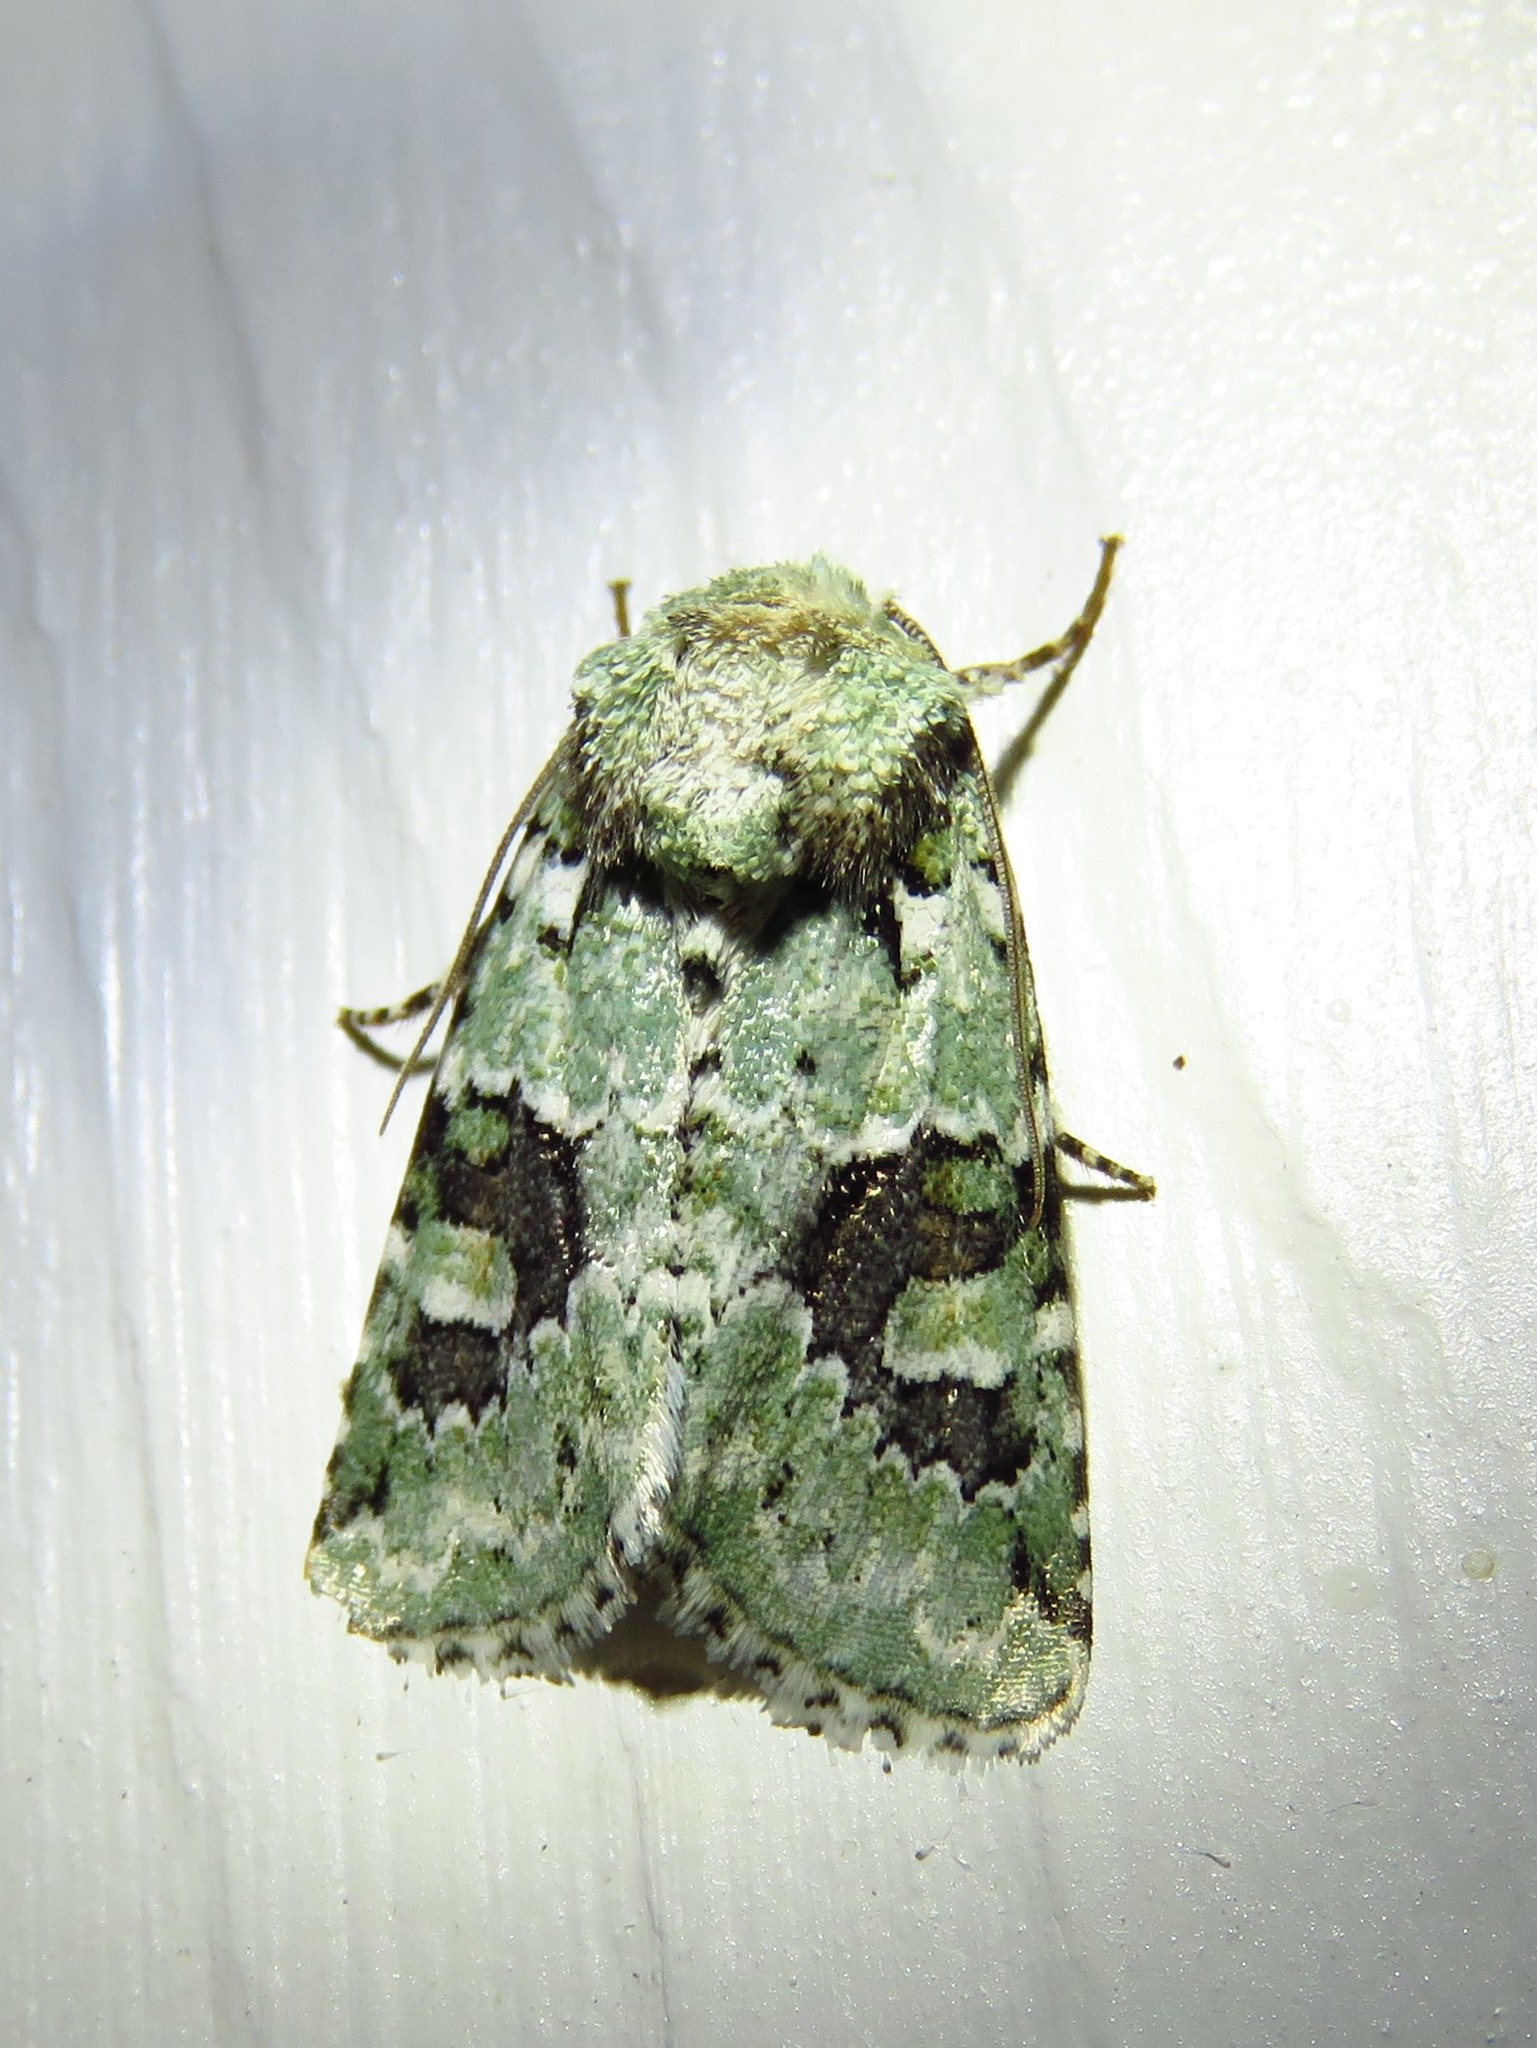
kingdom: Animalia
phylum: Arthropoda
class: Insecta
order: Lepidoptera
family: Noctuidae
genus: Lacinipolia
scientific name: Lacinipolia laudabilis
